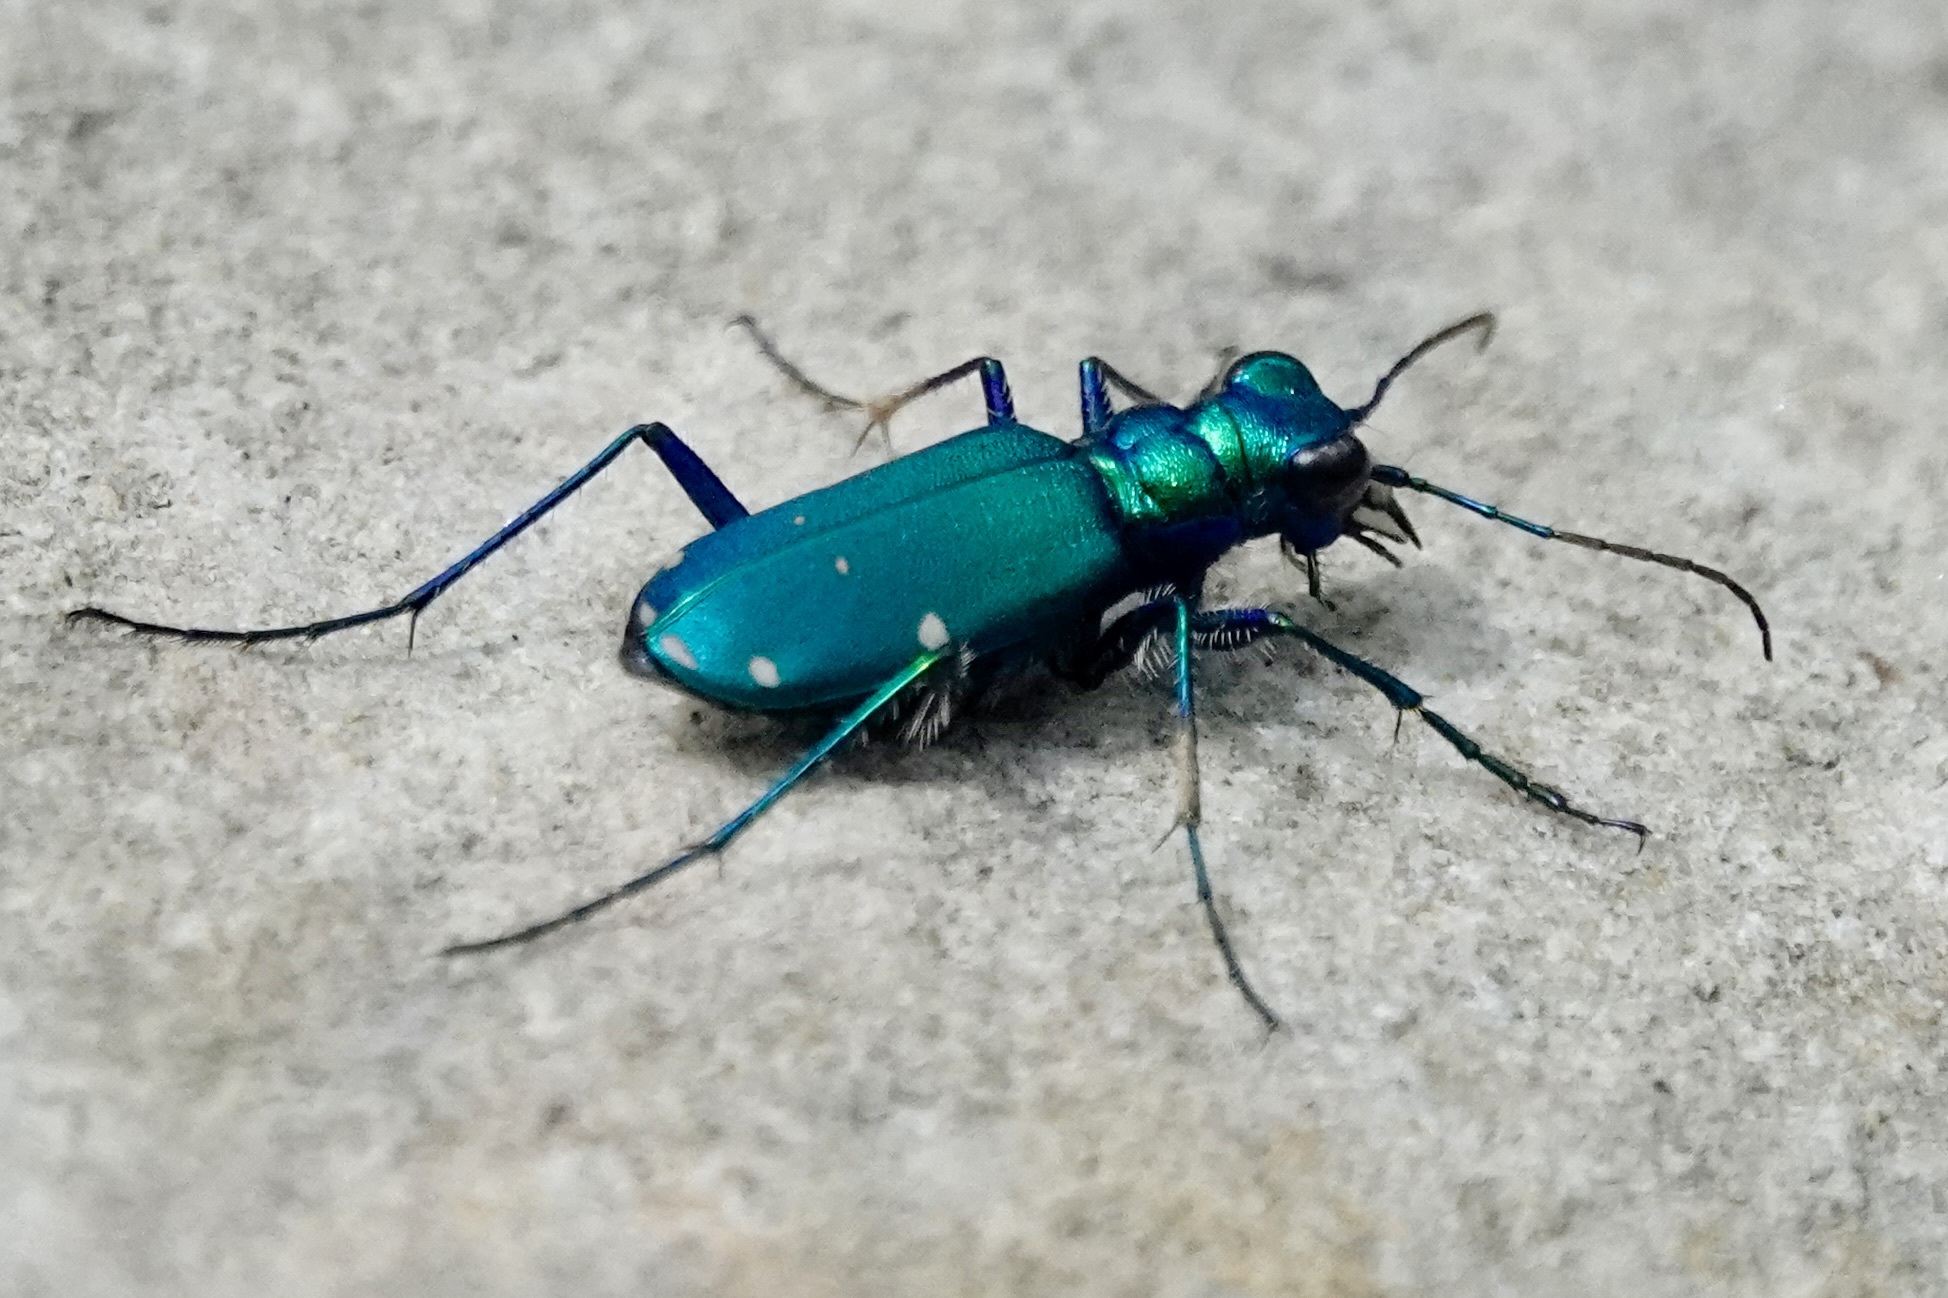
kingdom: Animalia
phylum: Arthropoda
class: Insecta
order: Coleoptera
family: Carabidae
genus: Cicindela
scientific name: Cicindela sexguttata
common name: Six-spotted tiger beetle
